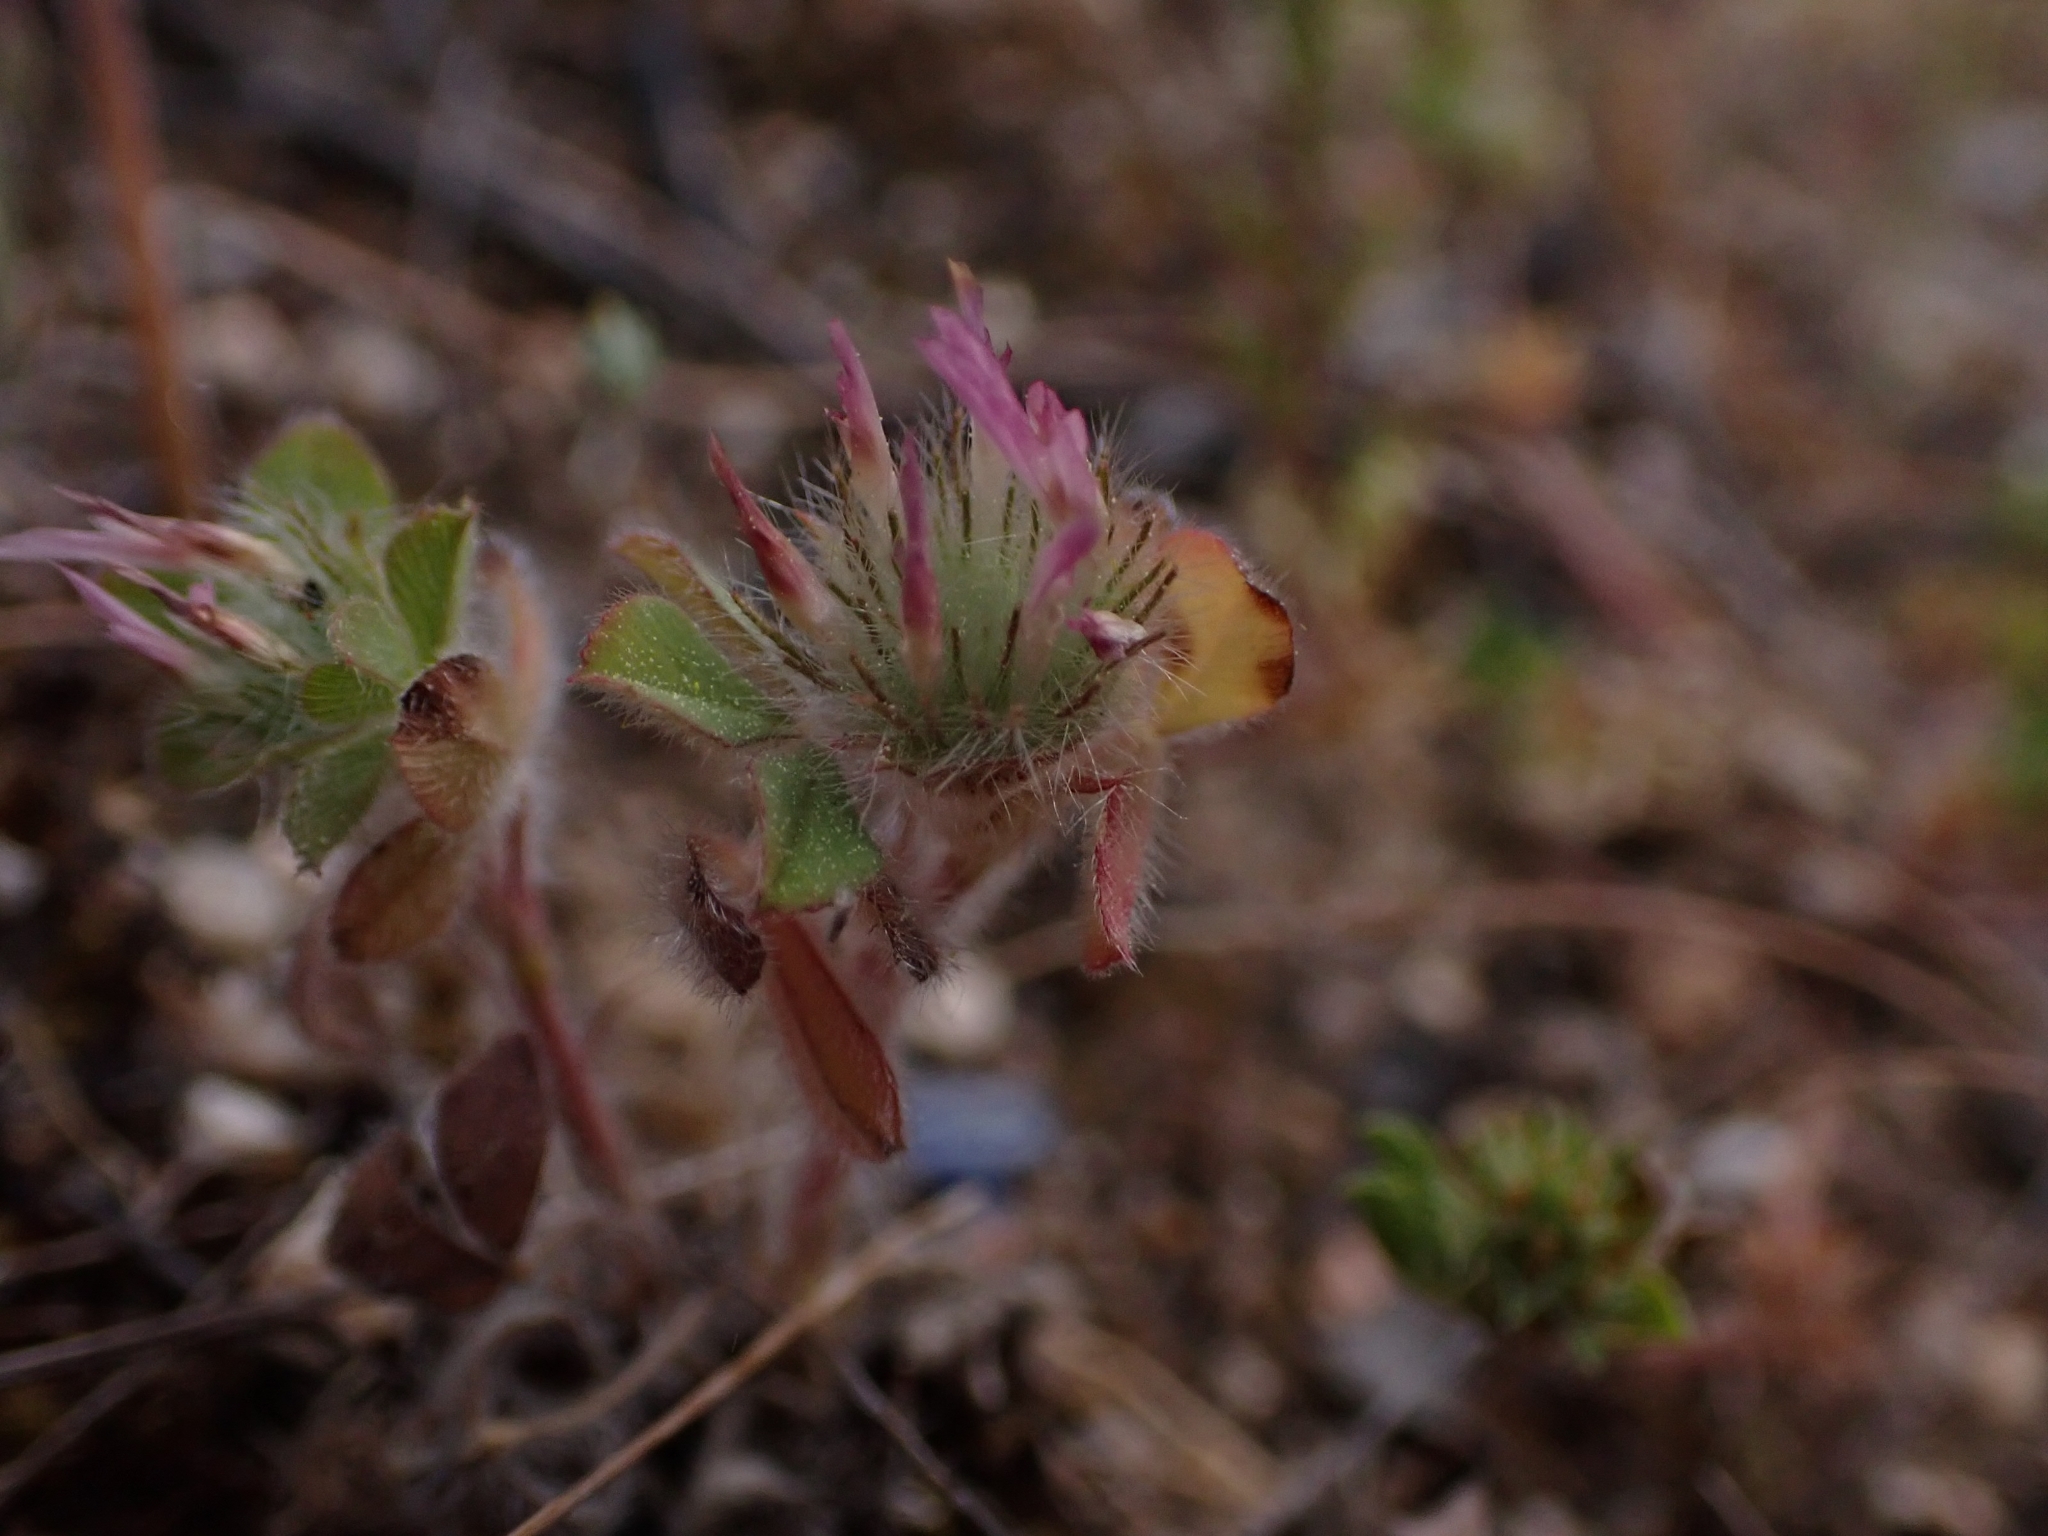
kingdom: Plantae
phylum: Tracheophyta
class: Magnoliopsida
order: Fabales
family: Fabaceae
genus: Trifolium
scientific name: Trifolium hirtum
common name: Rose clover
